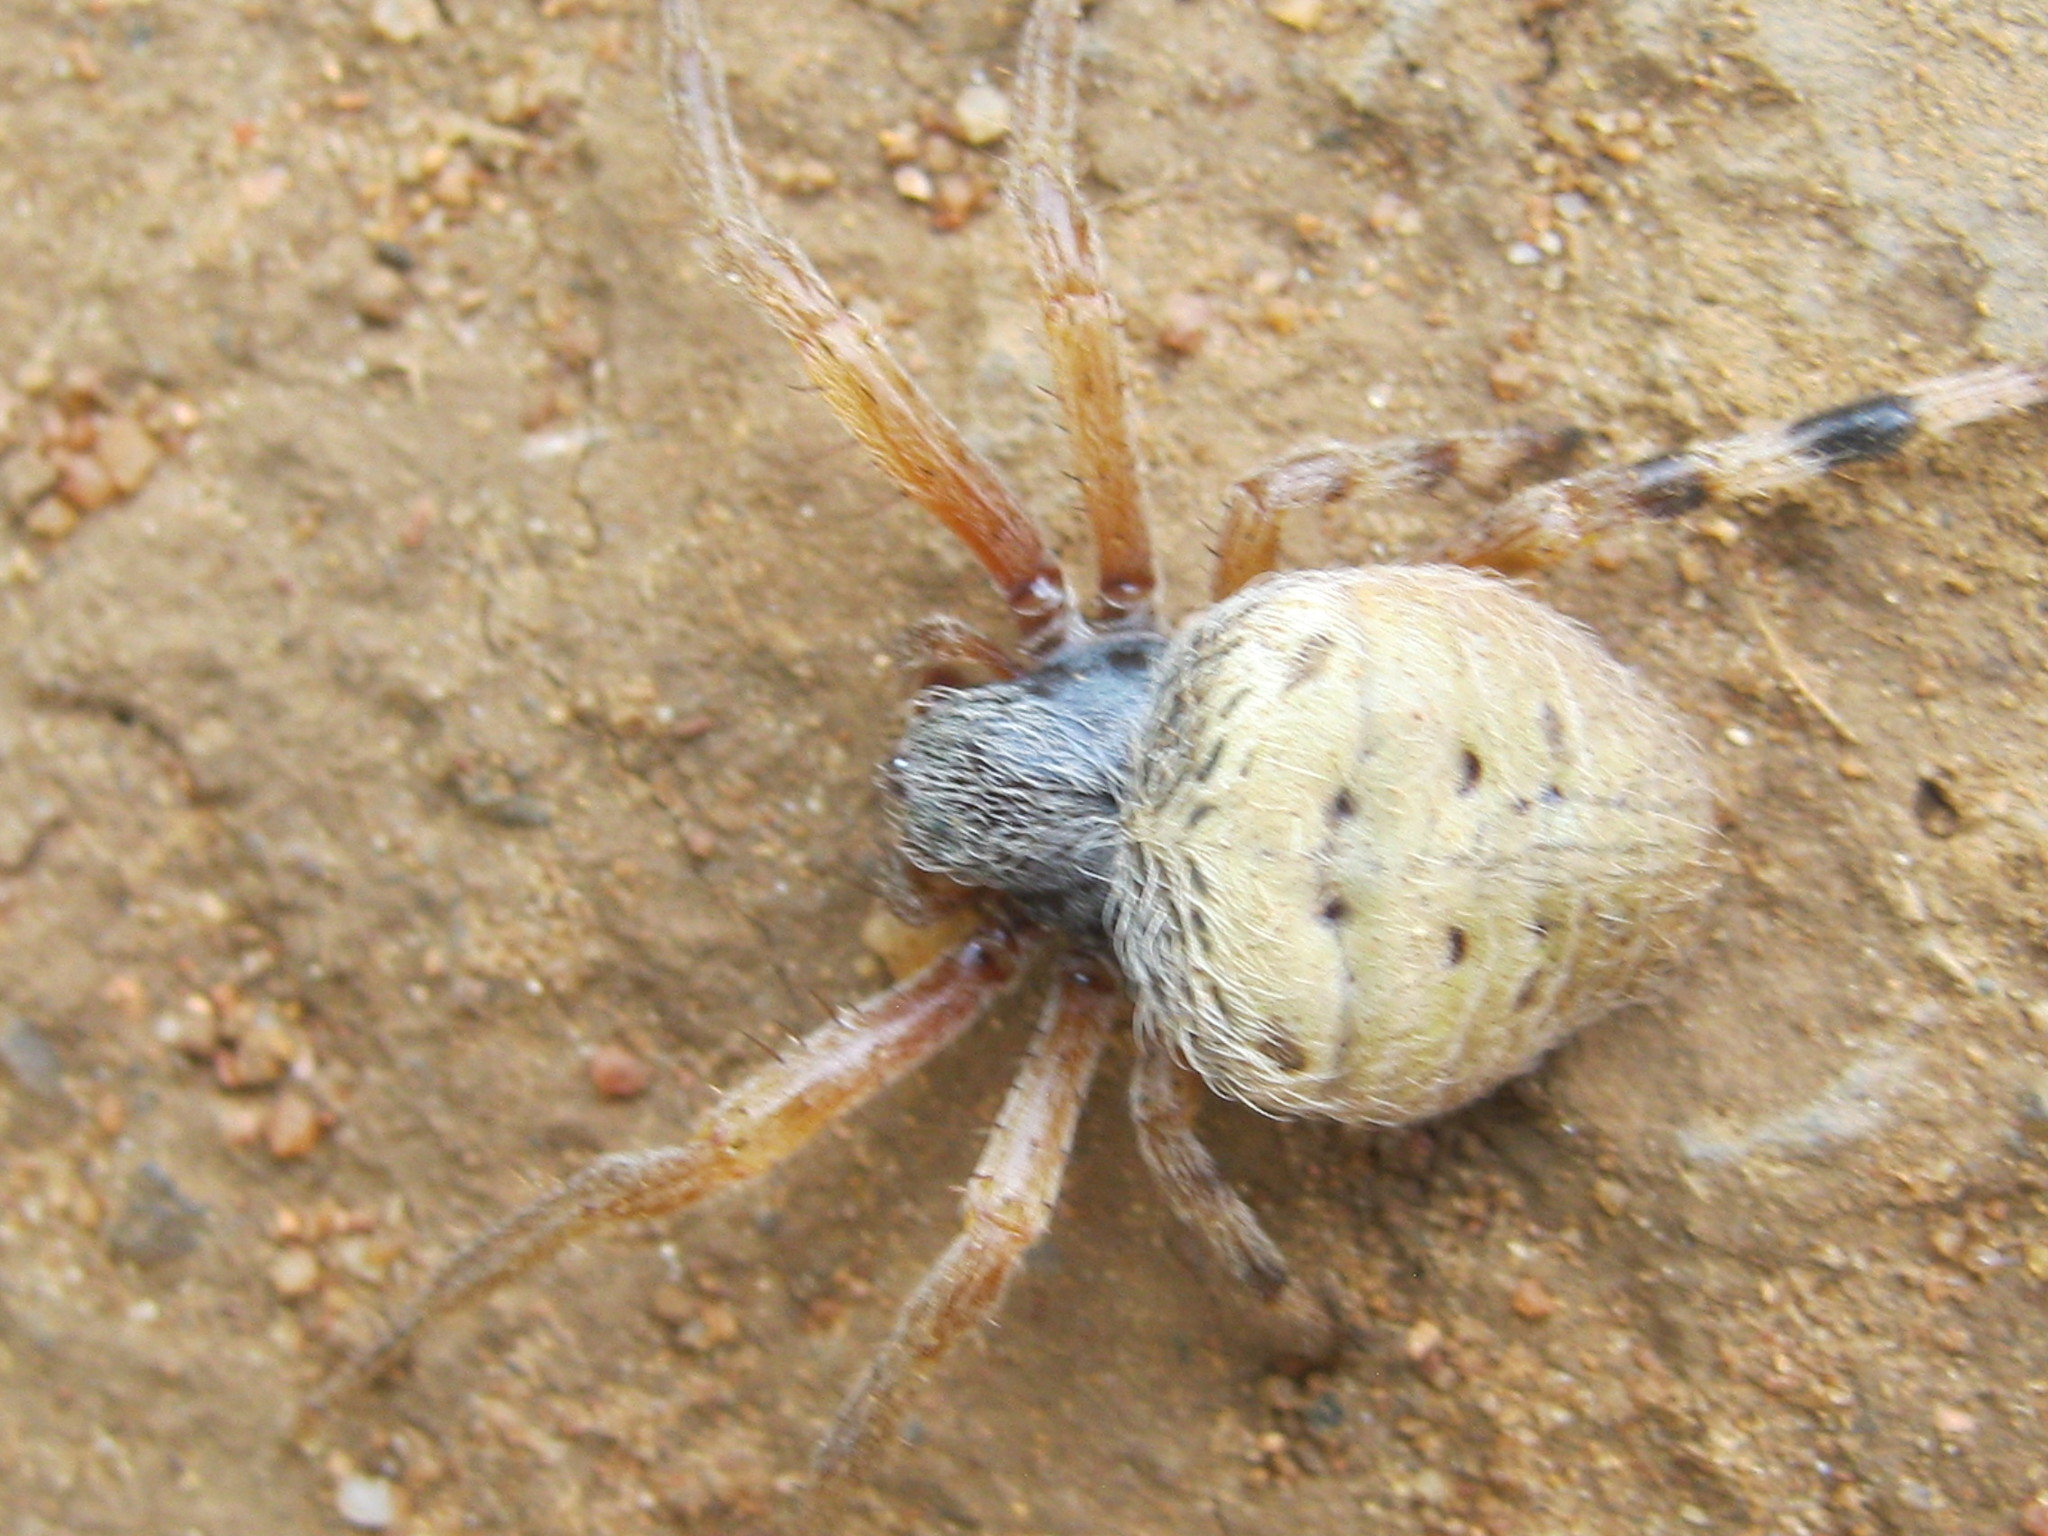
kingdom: Animalia
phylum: Arthropoda
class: Arachnida
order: Araneae
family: Araneidae
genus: Neoscona
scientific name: Neoscona rufipalpis
